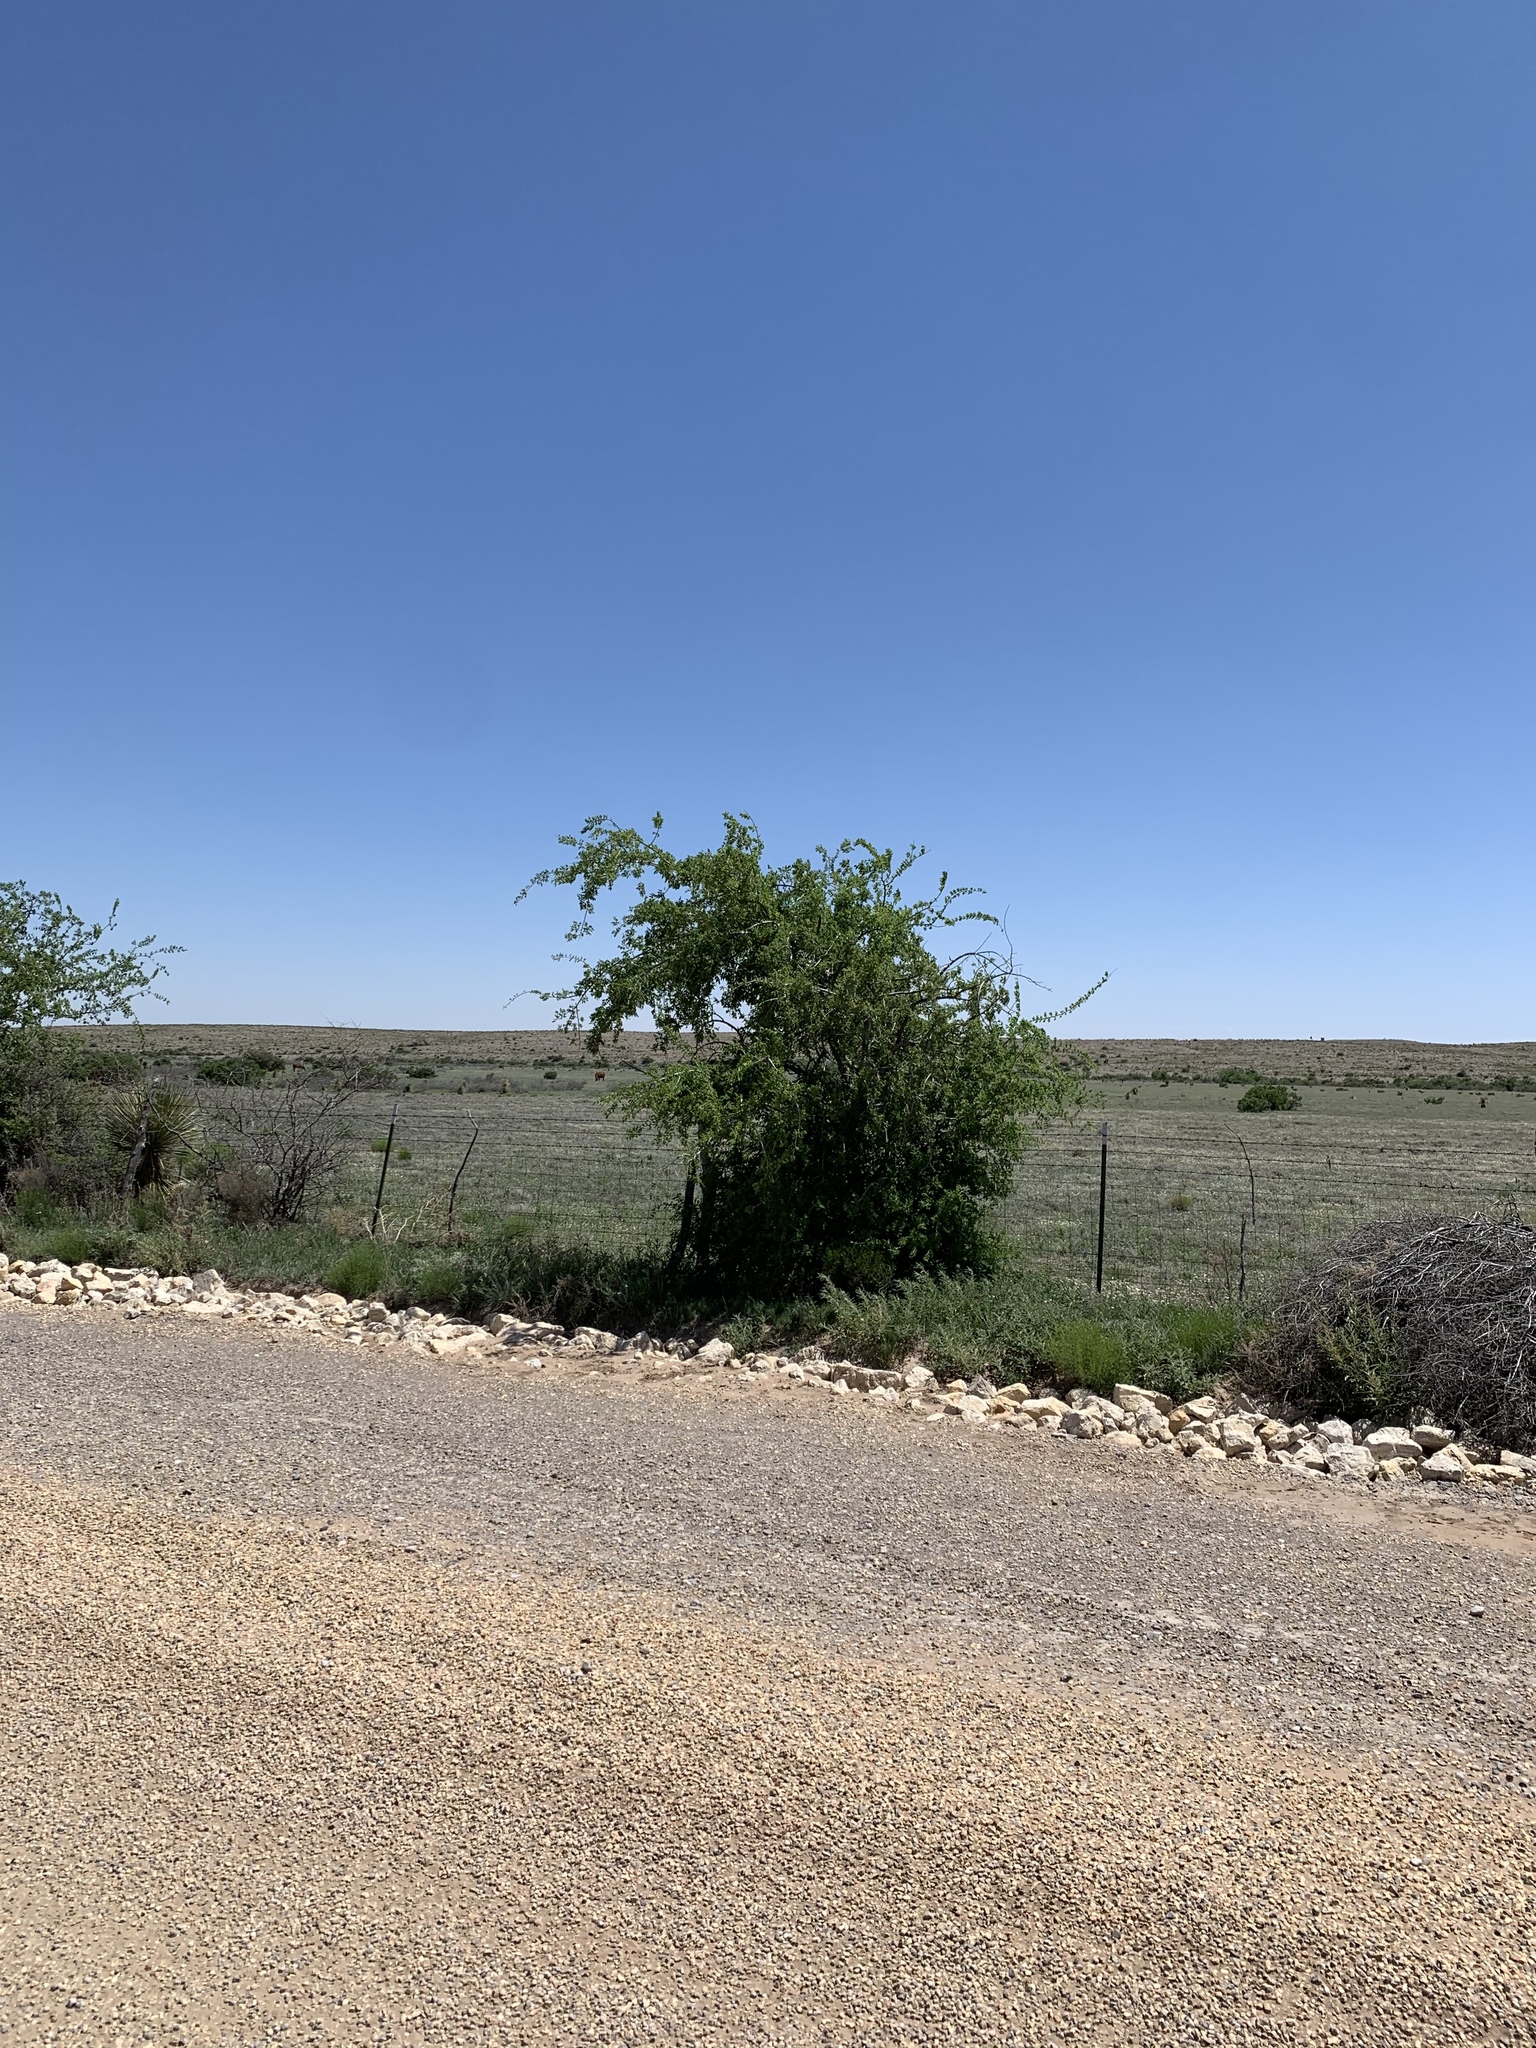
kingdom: Plantae
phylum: Tracheophyta
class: Magnoliopsida
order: Rosales
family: Cannabaceae
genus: Celtis
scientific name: Celtis reticulata
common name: Netleaf hackberry
